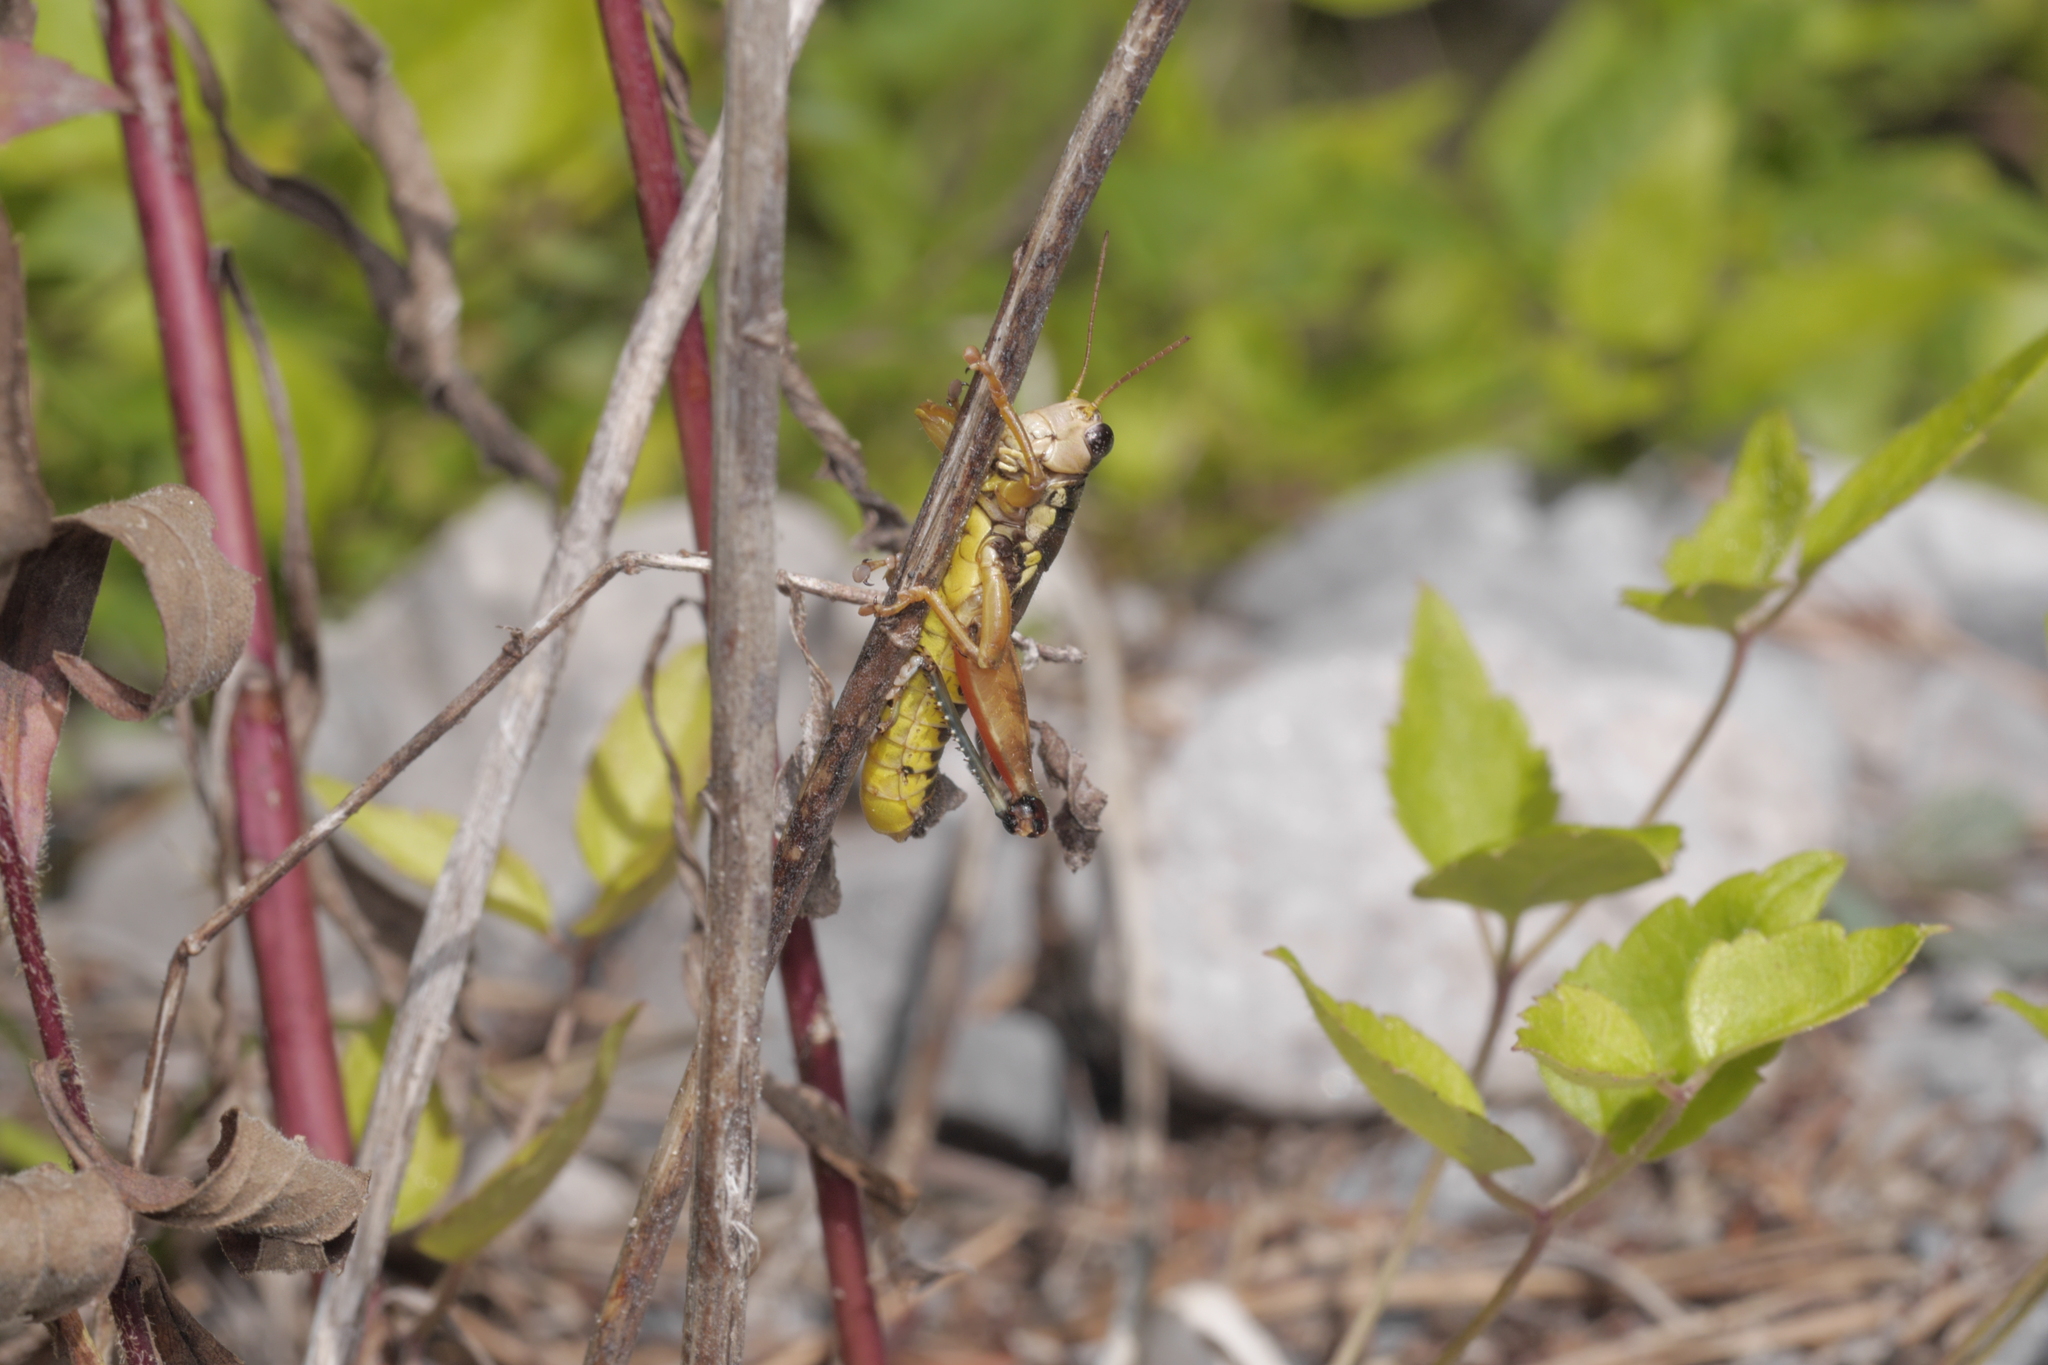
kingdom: Animalia
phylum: Arthropoda
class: Insecta
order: Orthoptera
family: Acrididae
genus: Podisma
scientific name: Podisma pedestris
